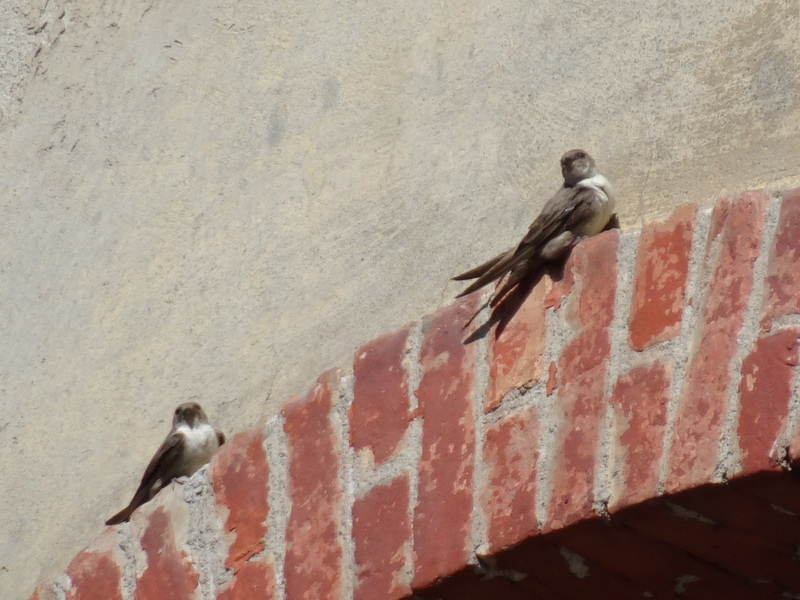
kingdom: Animalia
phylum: Chordata
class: Aves
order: Passeriformes
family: Hirundinidae
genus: Ptyonoprogne
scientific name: Ptyonoprogne rupestris
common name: Eurasian crag martin
